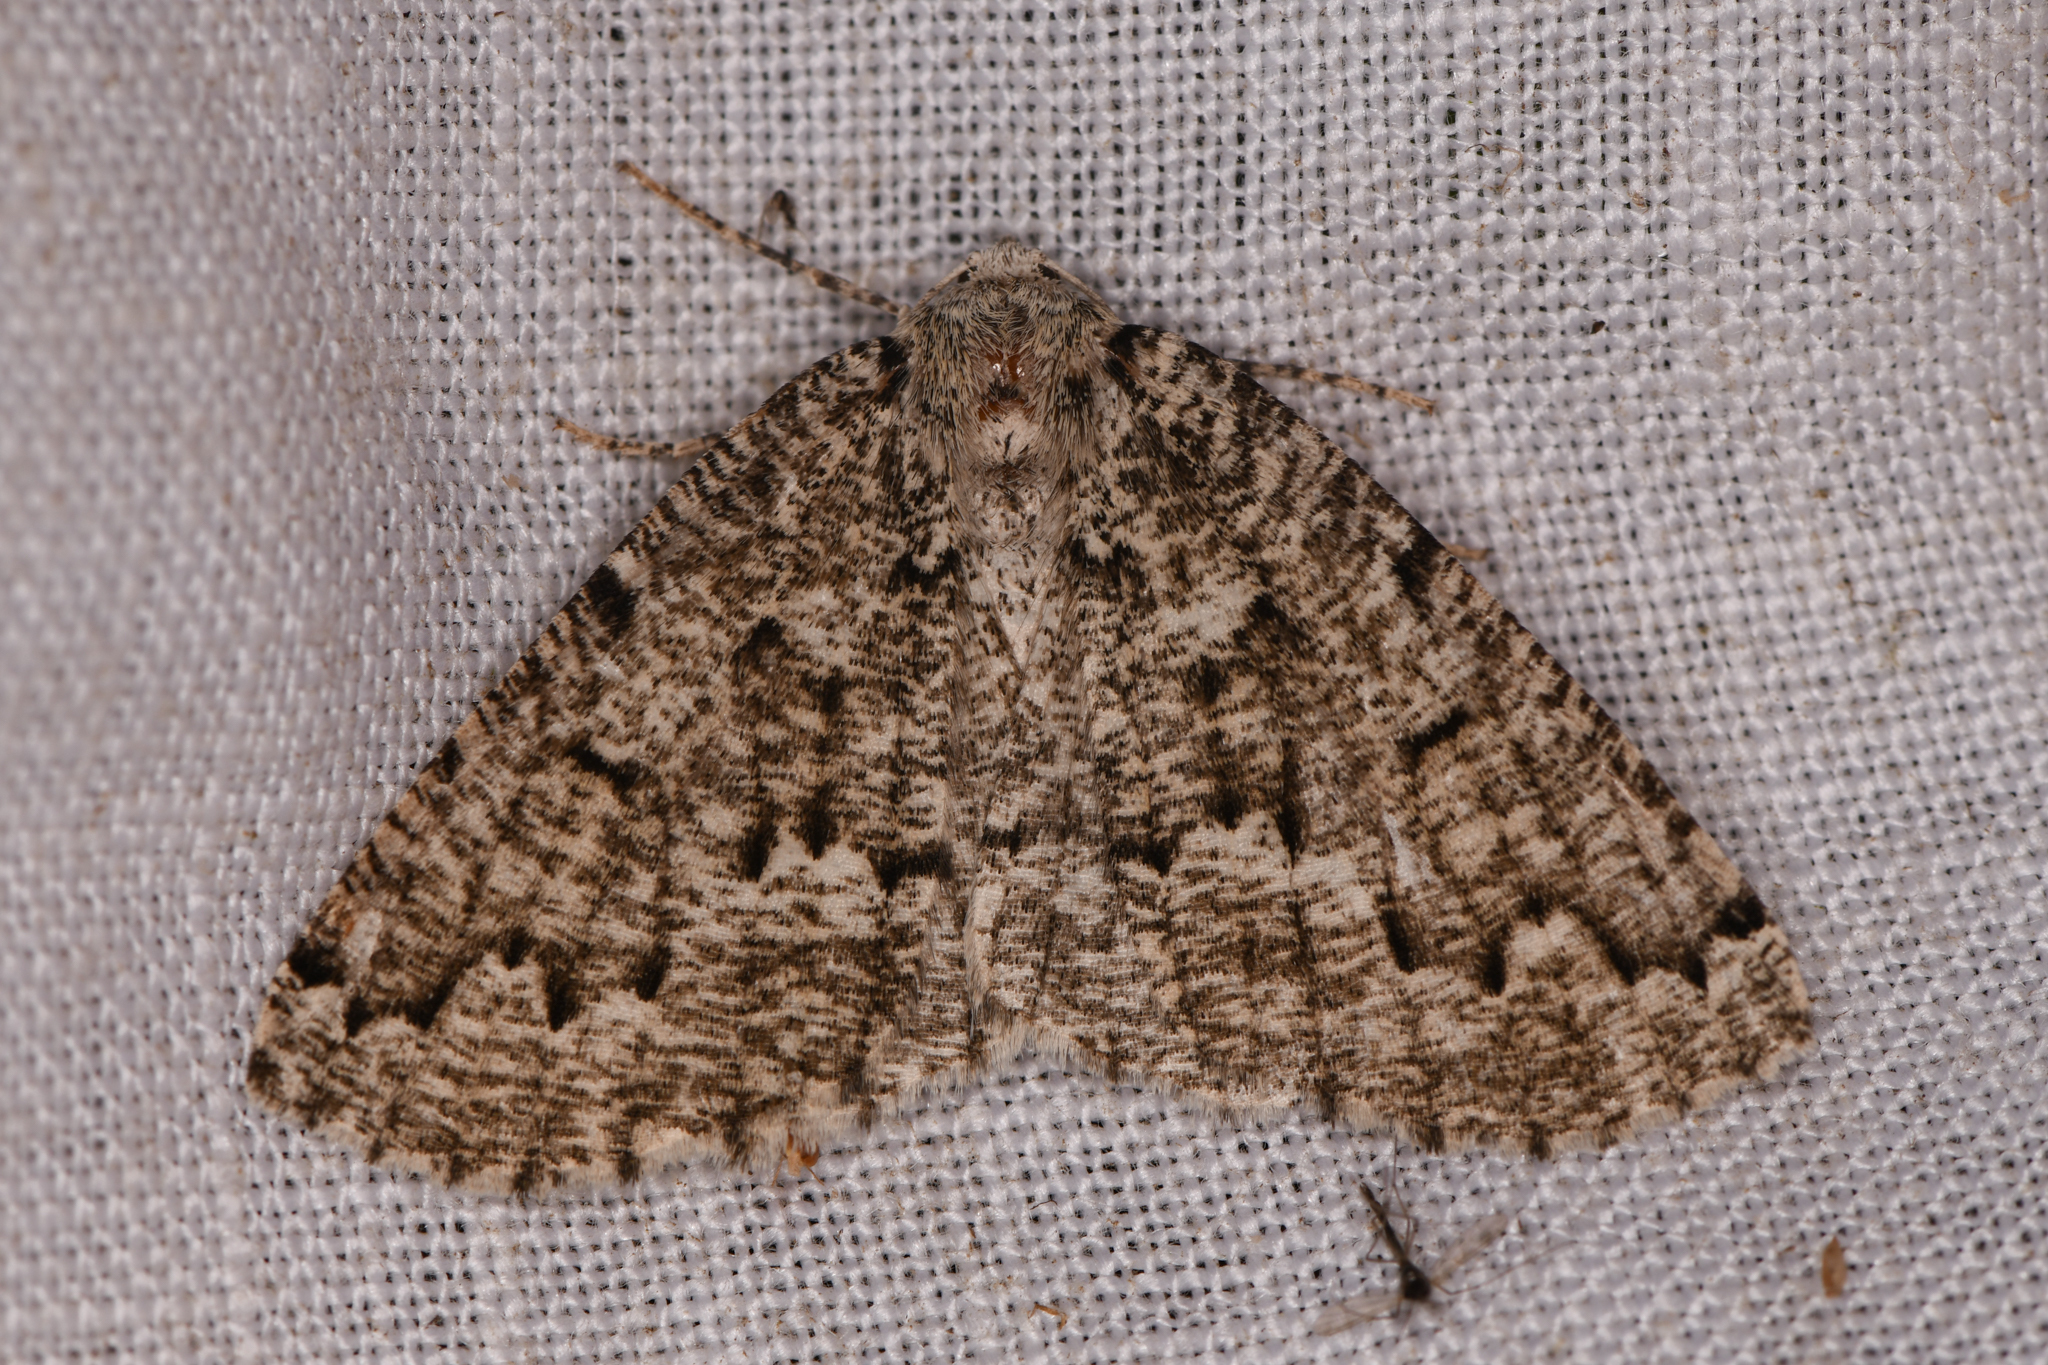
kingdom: Animalia
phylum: Arthropoda
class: Insecta
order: Lepidoptera
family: Geometridae
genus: Sabulodes
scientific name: Sabulodes
